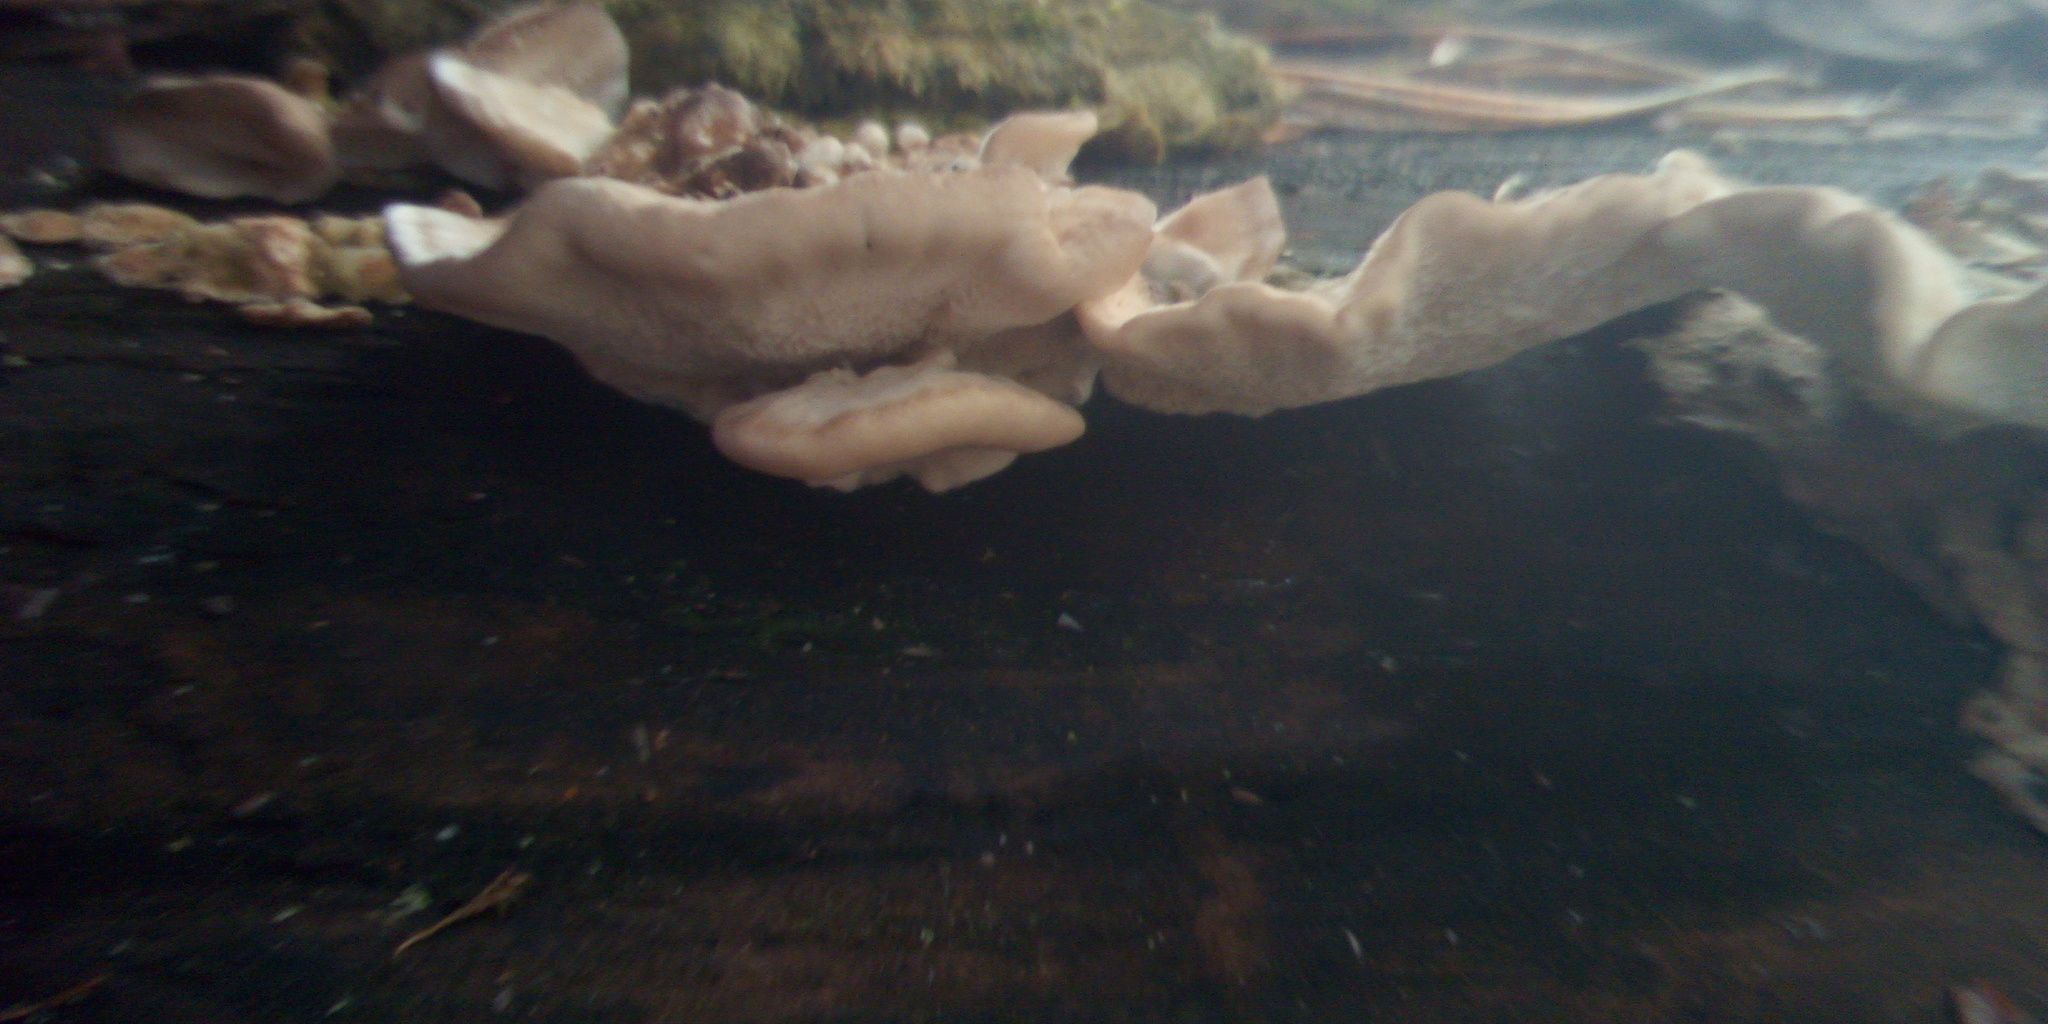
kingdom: Fungi
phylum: Basidiomycota
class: Agaricomycetes
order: Polyporales
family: Polyporaceae
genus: Trametes
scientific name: Trametes versicolor
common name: Turkeytail
